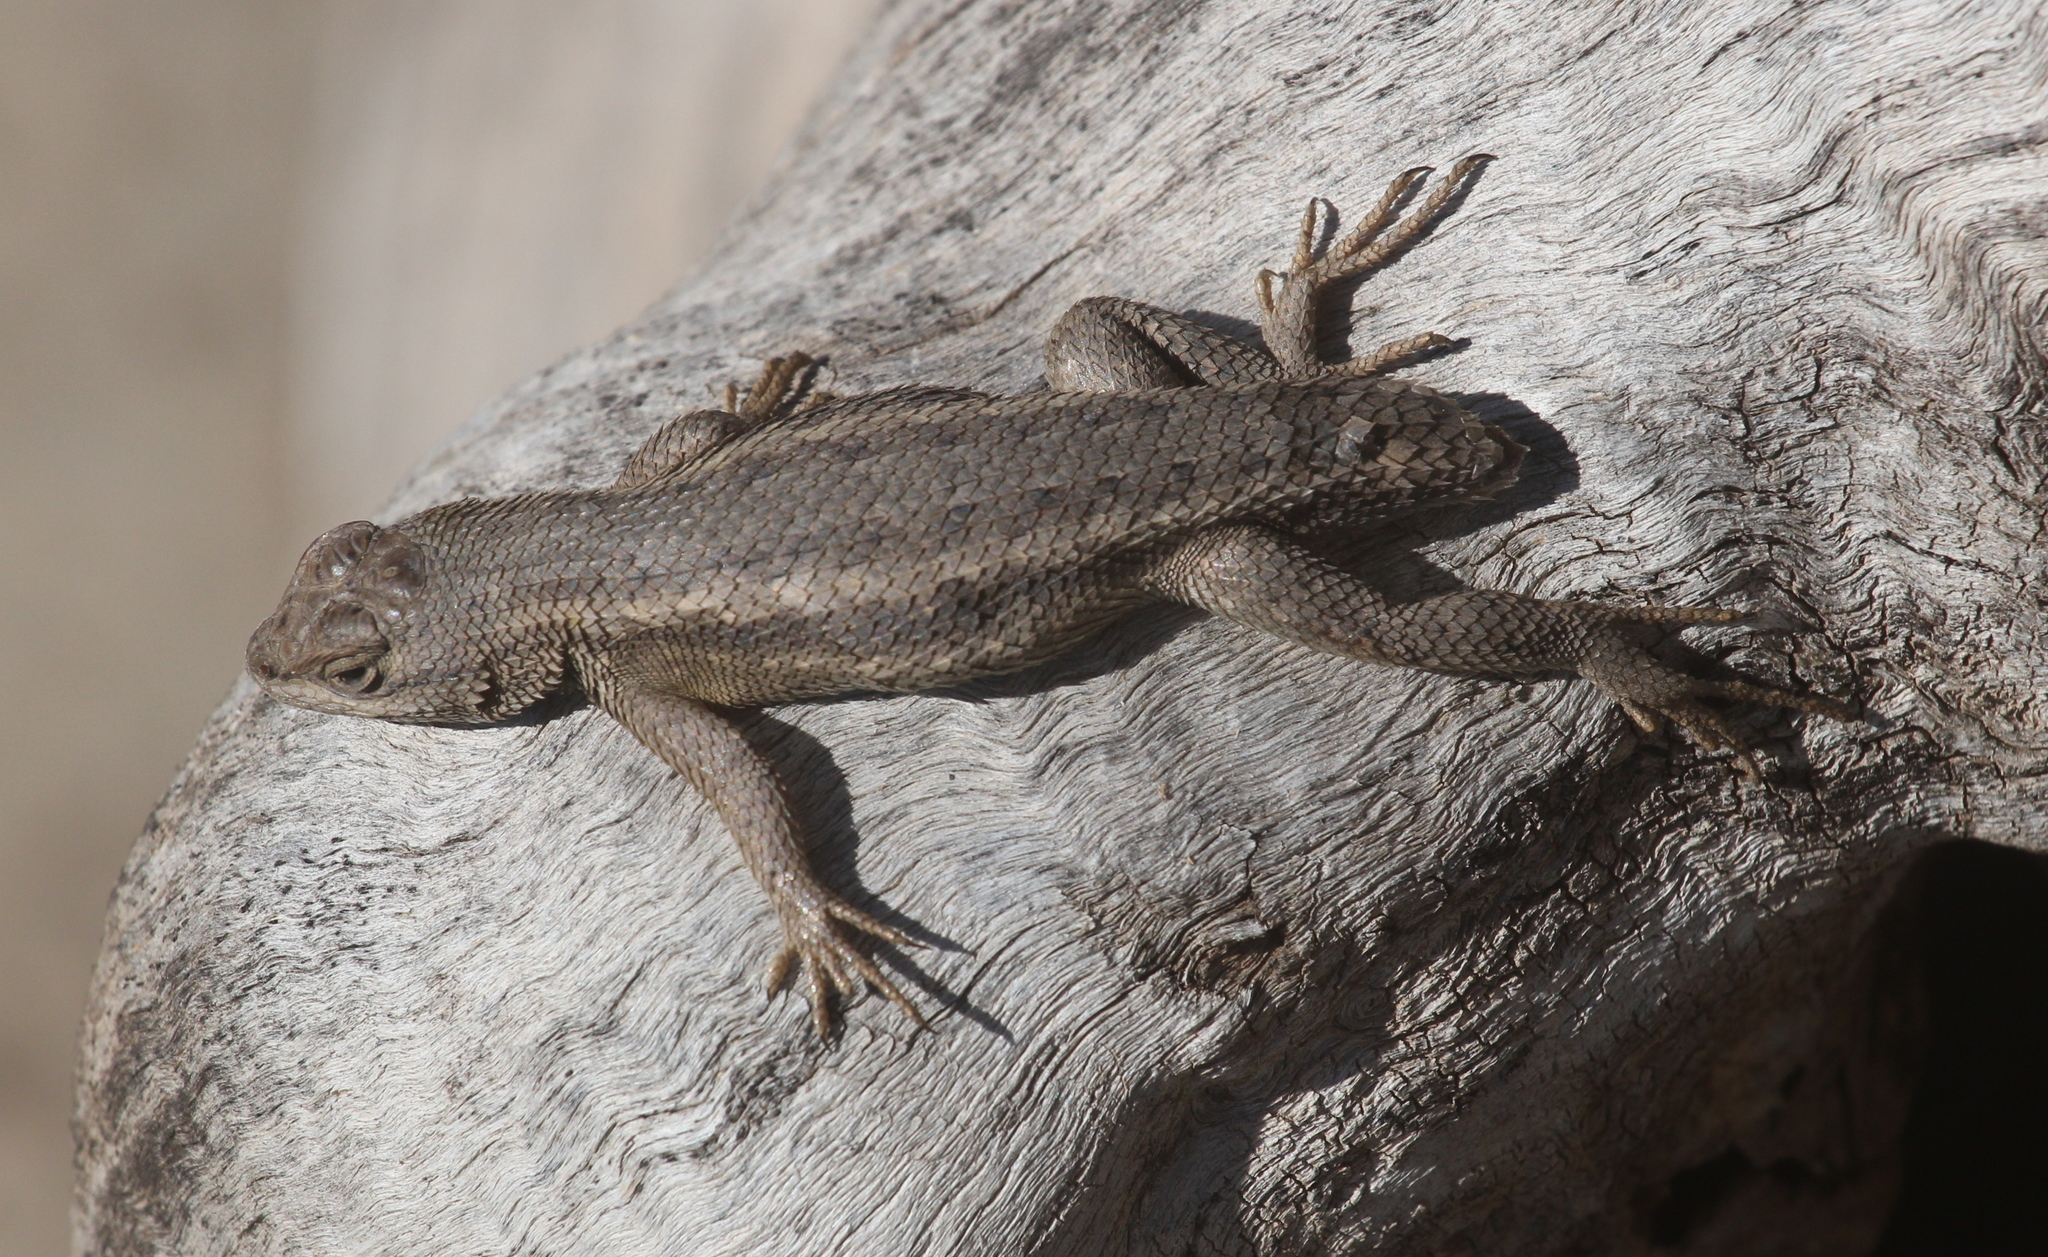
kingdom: Animalia
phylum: Chordata
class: Squamata
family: Phrynosomatidae
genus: Sceloporus
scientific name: Sceloporus slevini
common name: Slevins’s bunch grass lizard
